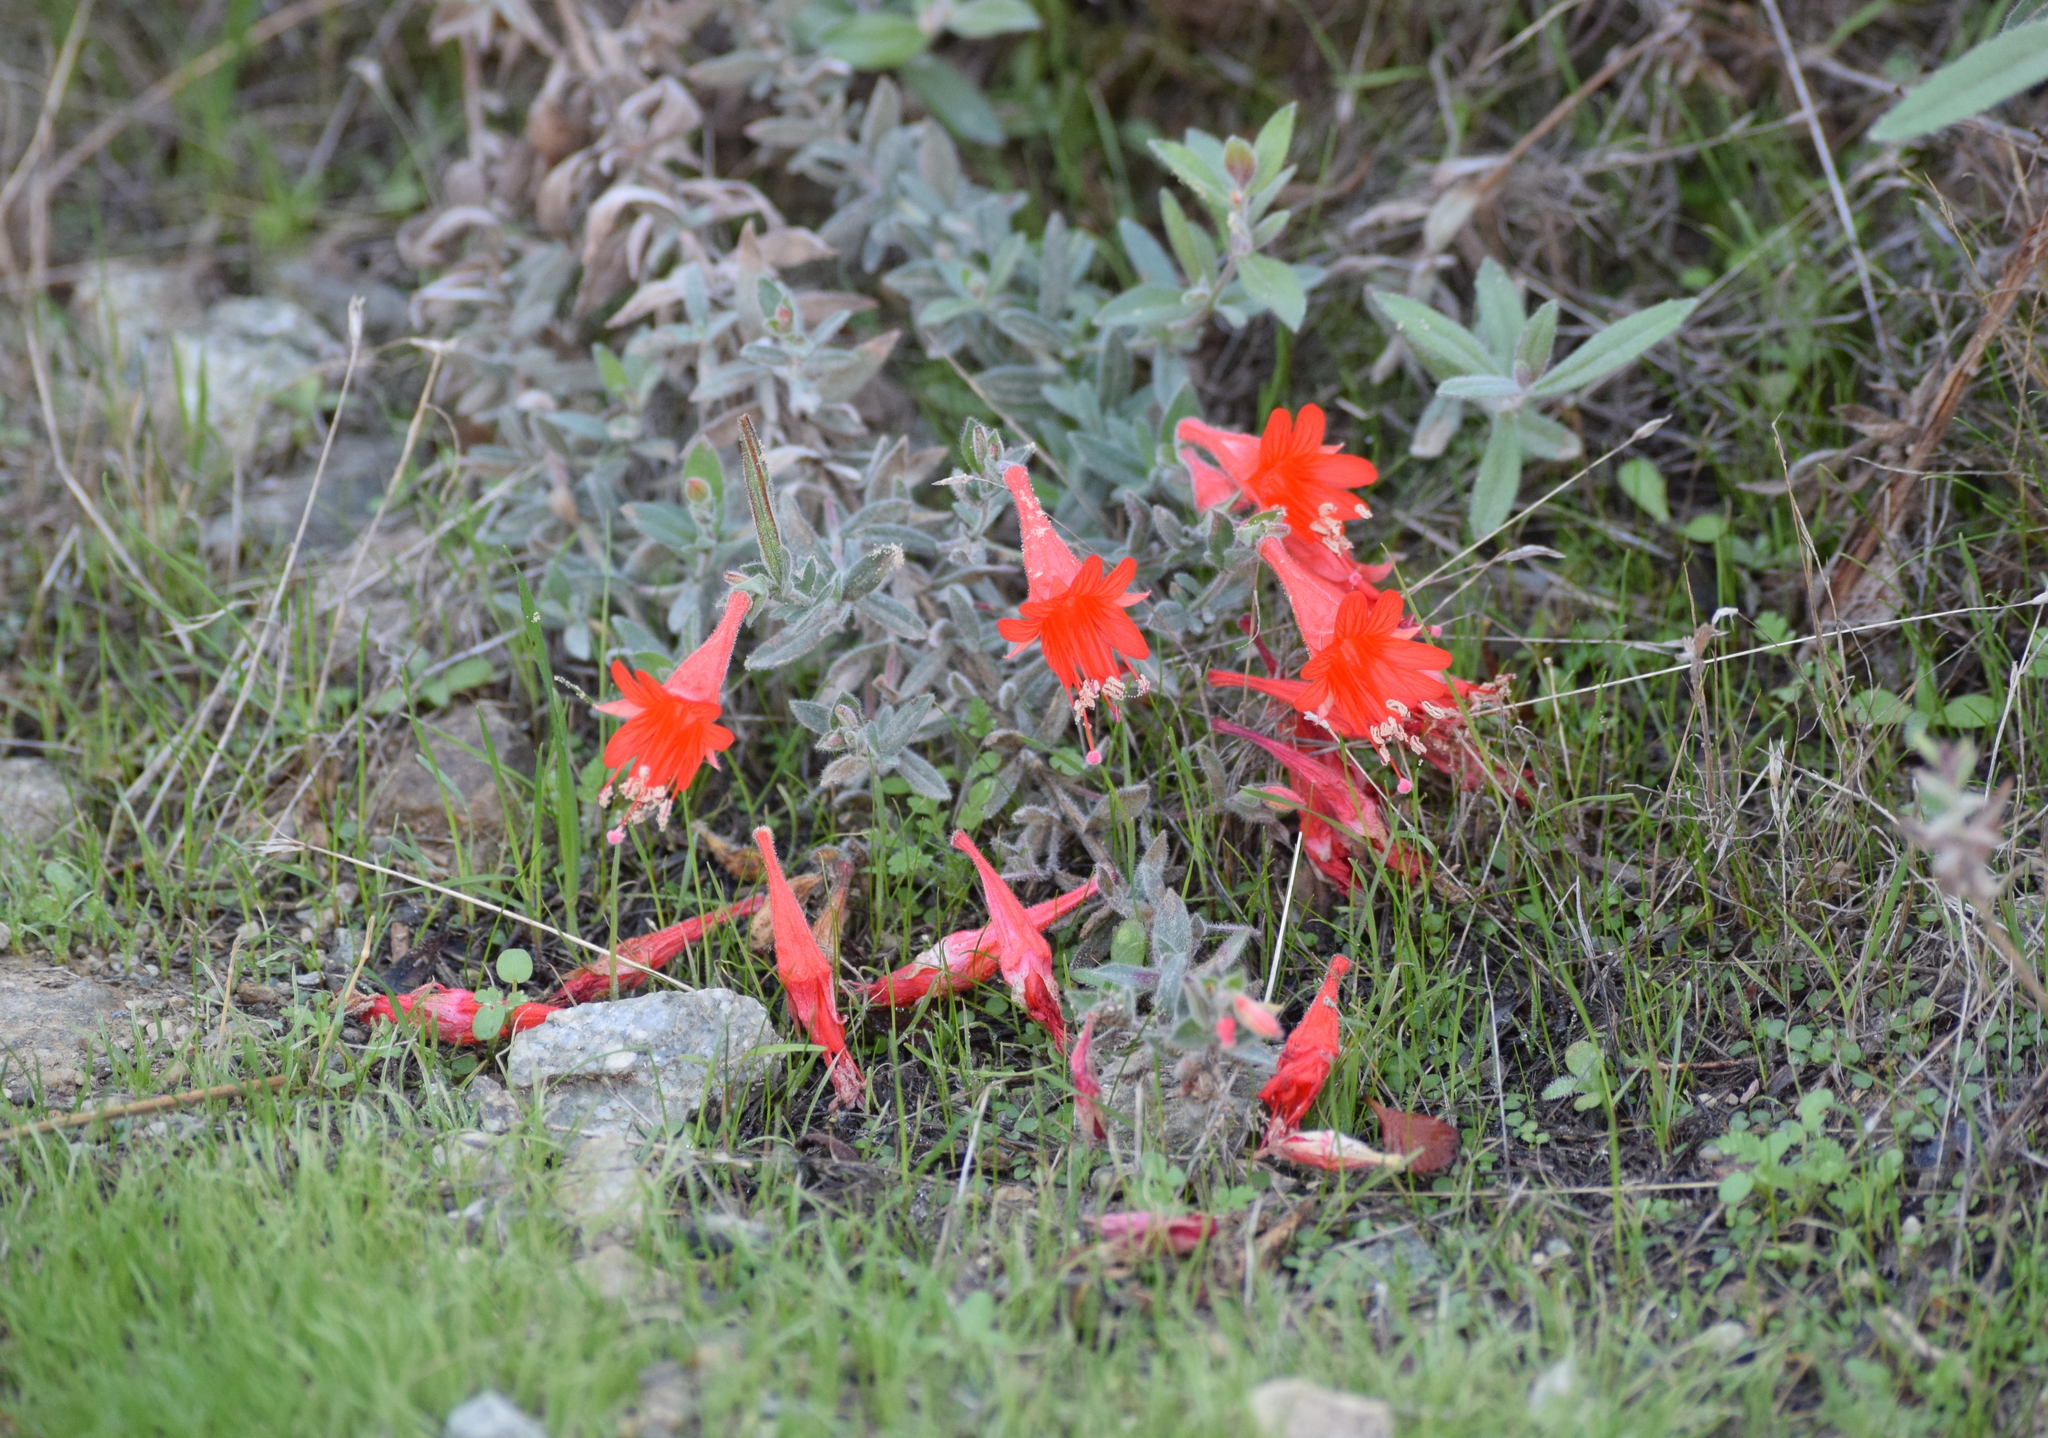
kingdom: Plantae
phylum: Tracheophyta
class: Magnoliopsida
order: Myrtales
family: Onagraceae
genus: Epilobium
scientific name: Epilobium canum
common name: California-fuchsia
